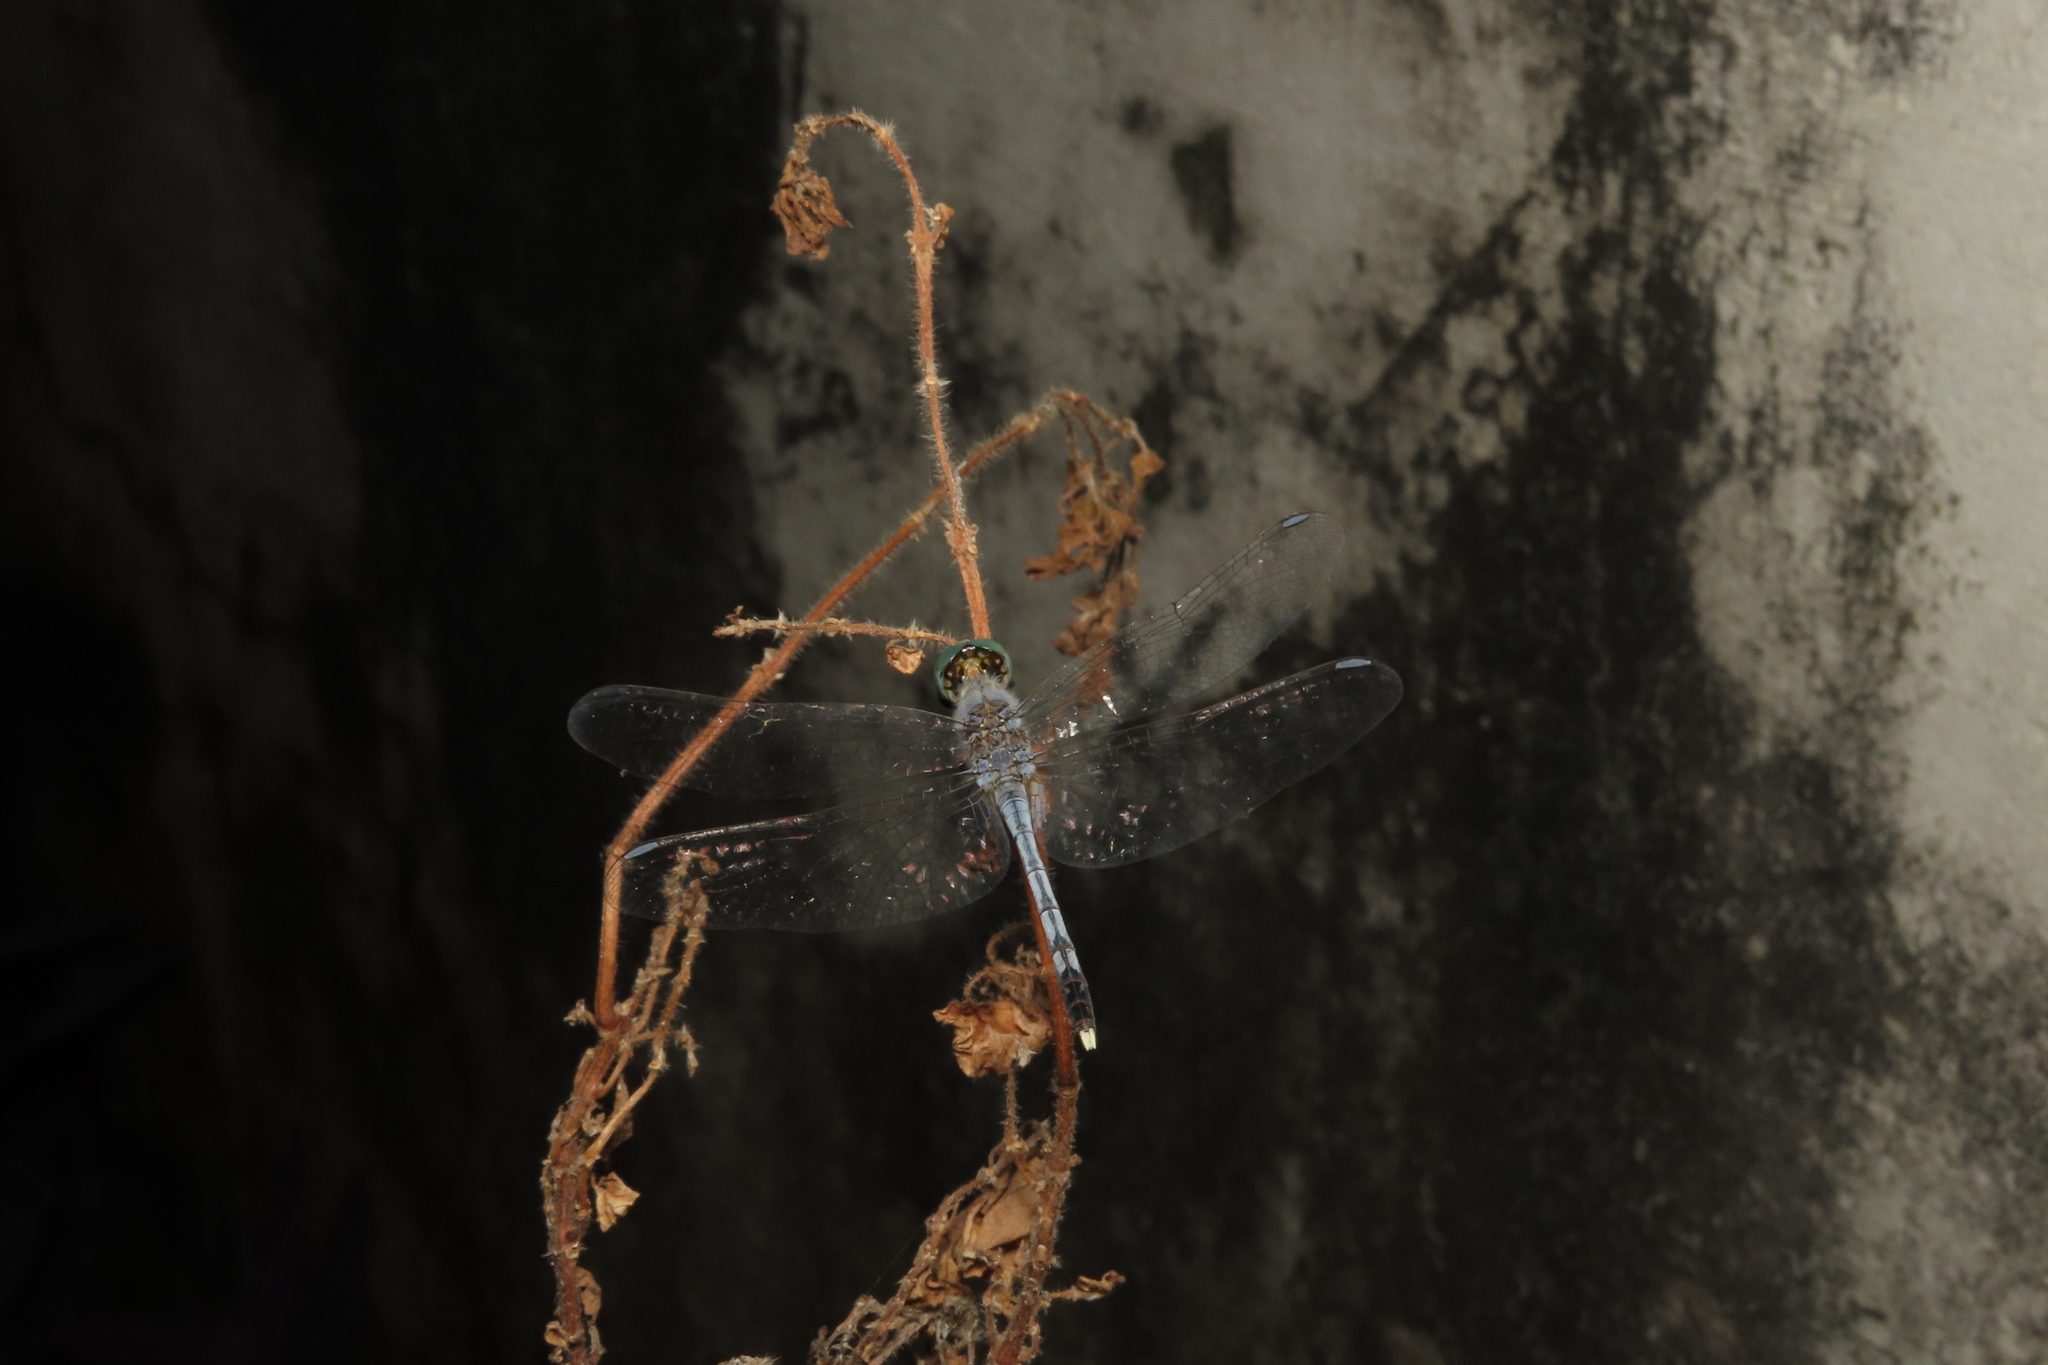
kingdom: Animalia
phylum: Arthropoda
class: Insecta
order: Odonata
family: Libellulidae
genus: Diplacodes
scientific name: Diplacodes trivialis
